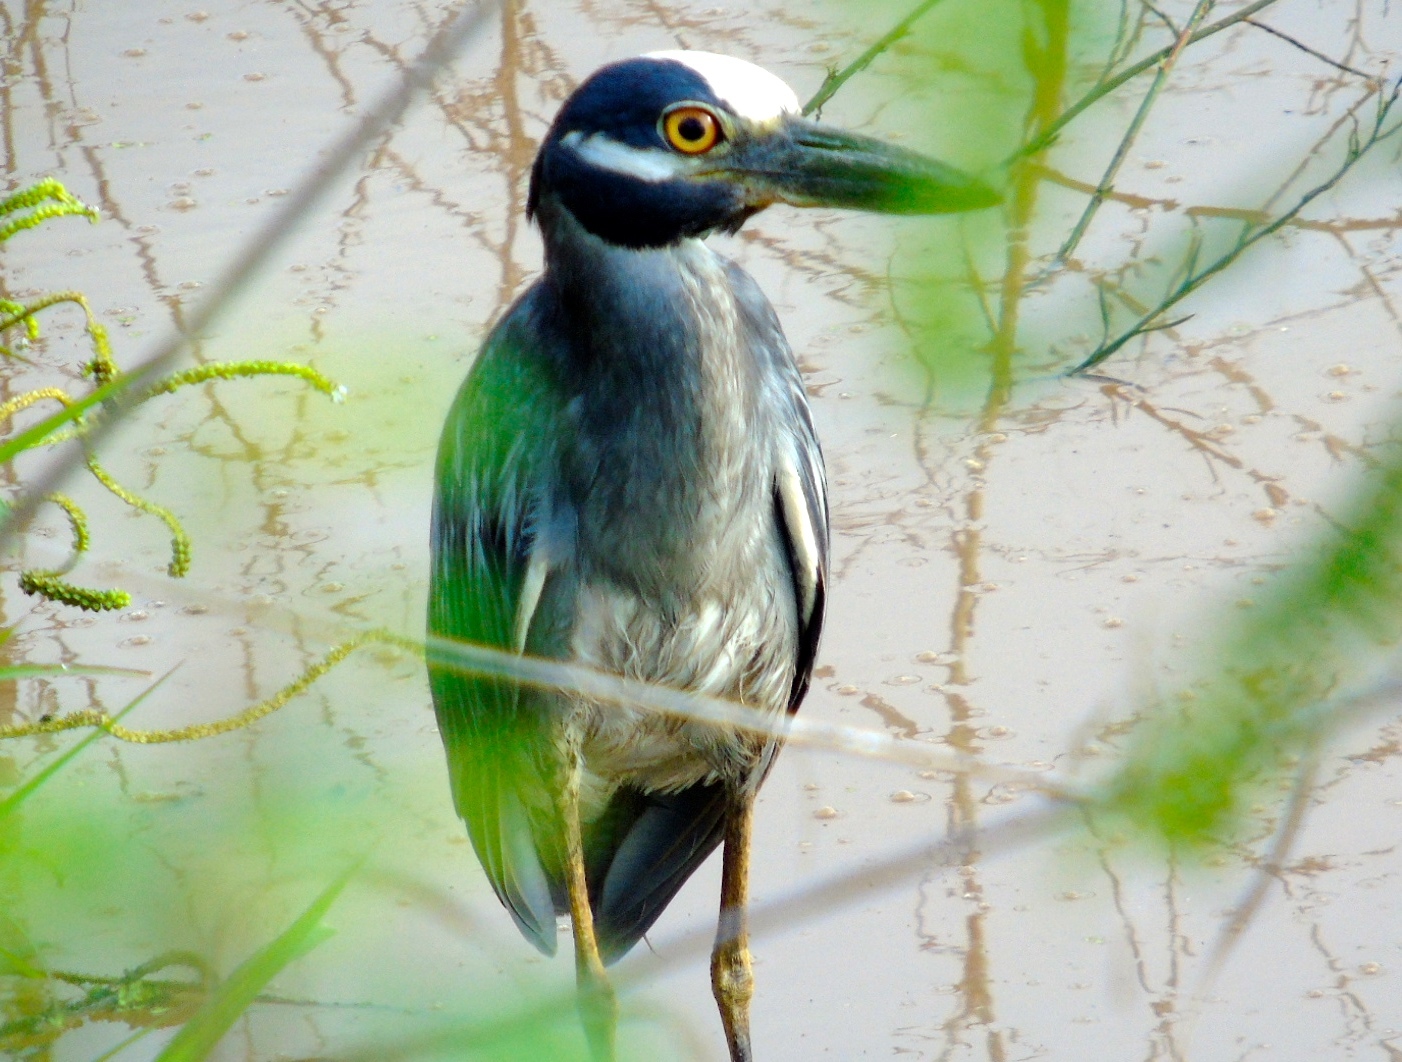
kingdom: Animalia
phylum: Chordata
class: Aves
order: Pelecaniformes
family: Ardeidae
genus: Nyctanassa
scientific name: Nyctanassa violacea
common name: Yellow-crowned night heron
